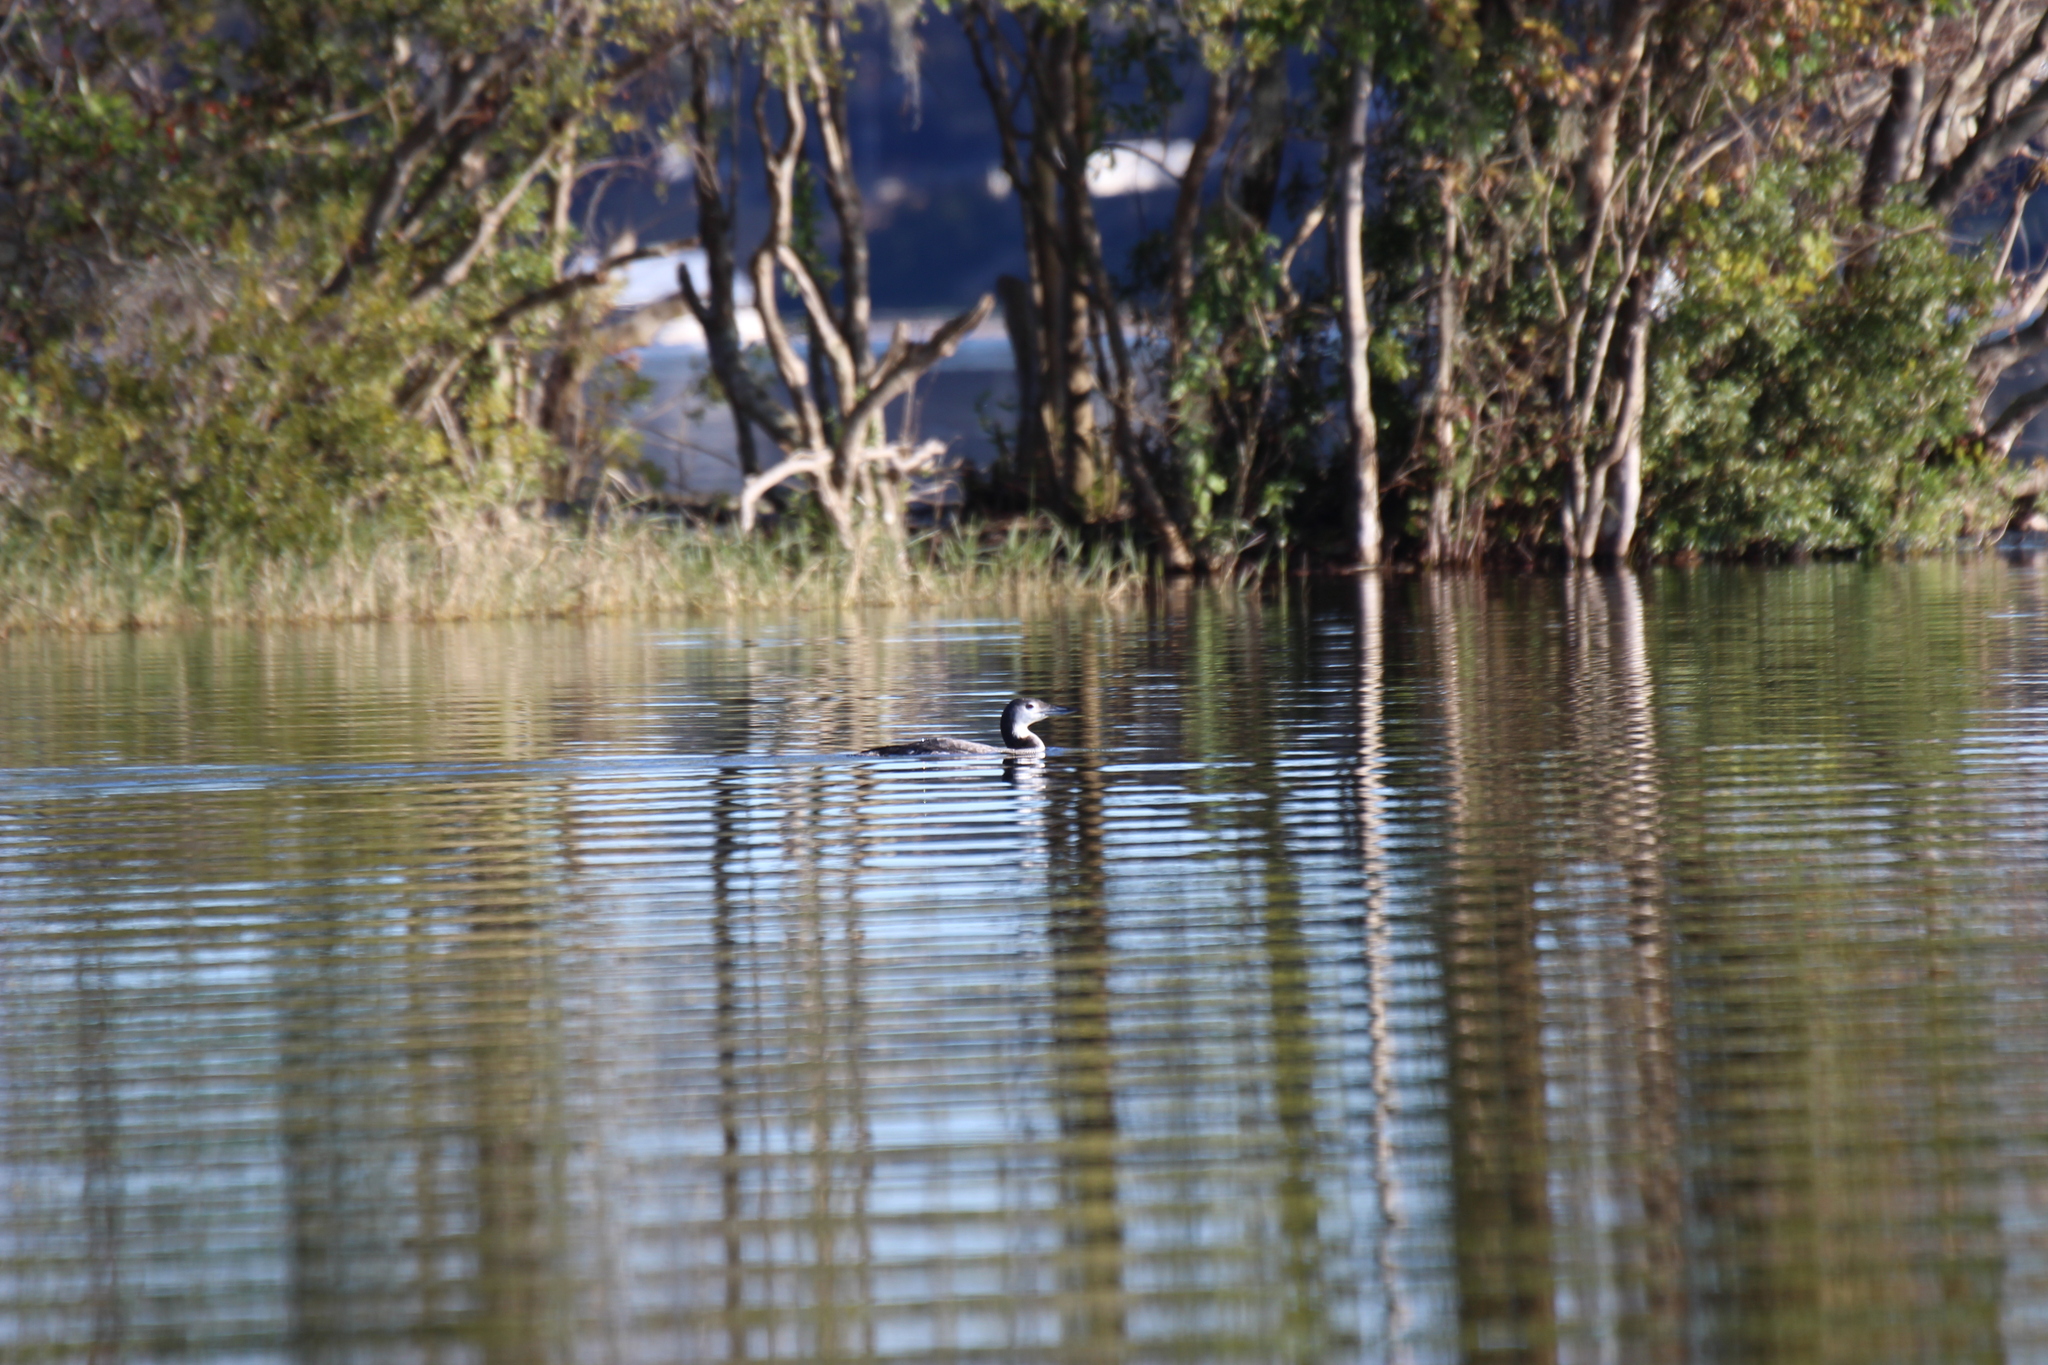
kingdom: Animalia
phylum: Chordata
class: Aves
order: Gaviiformes
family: Gaviidae
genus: Gavia
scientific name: Gavia immer
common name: Common loon
